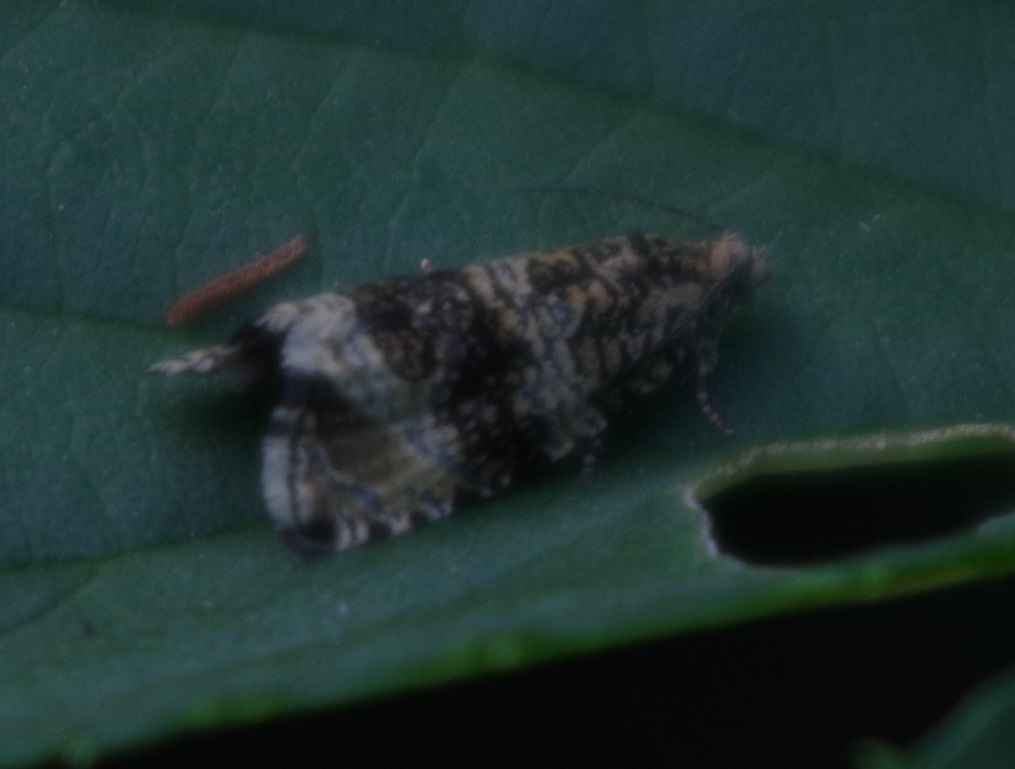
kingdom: Animalia
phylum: Arthropoda
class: Insecta
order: Lepidoptera
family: Tortricidae
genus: Syricoris
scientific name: Syricoris lacunana
